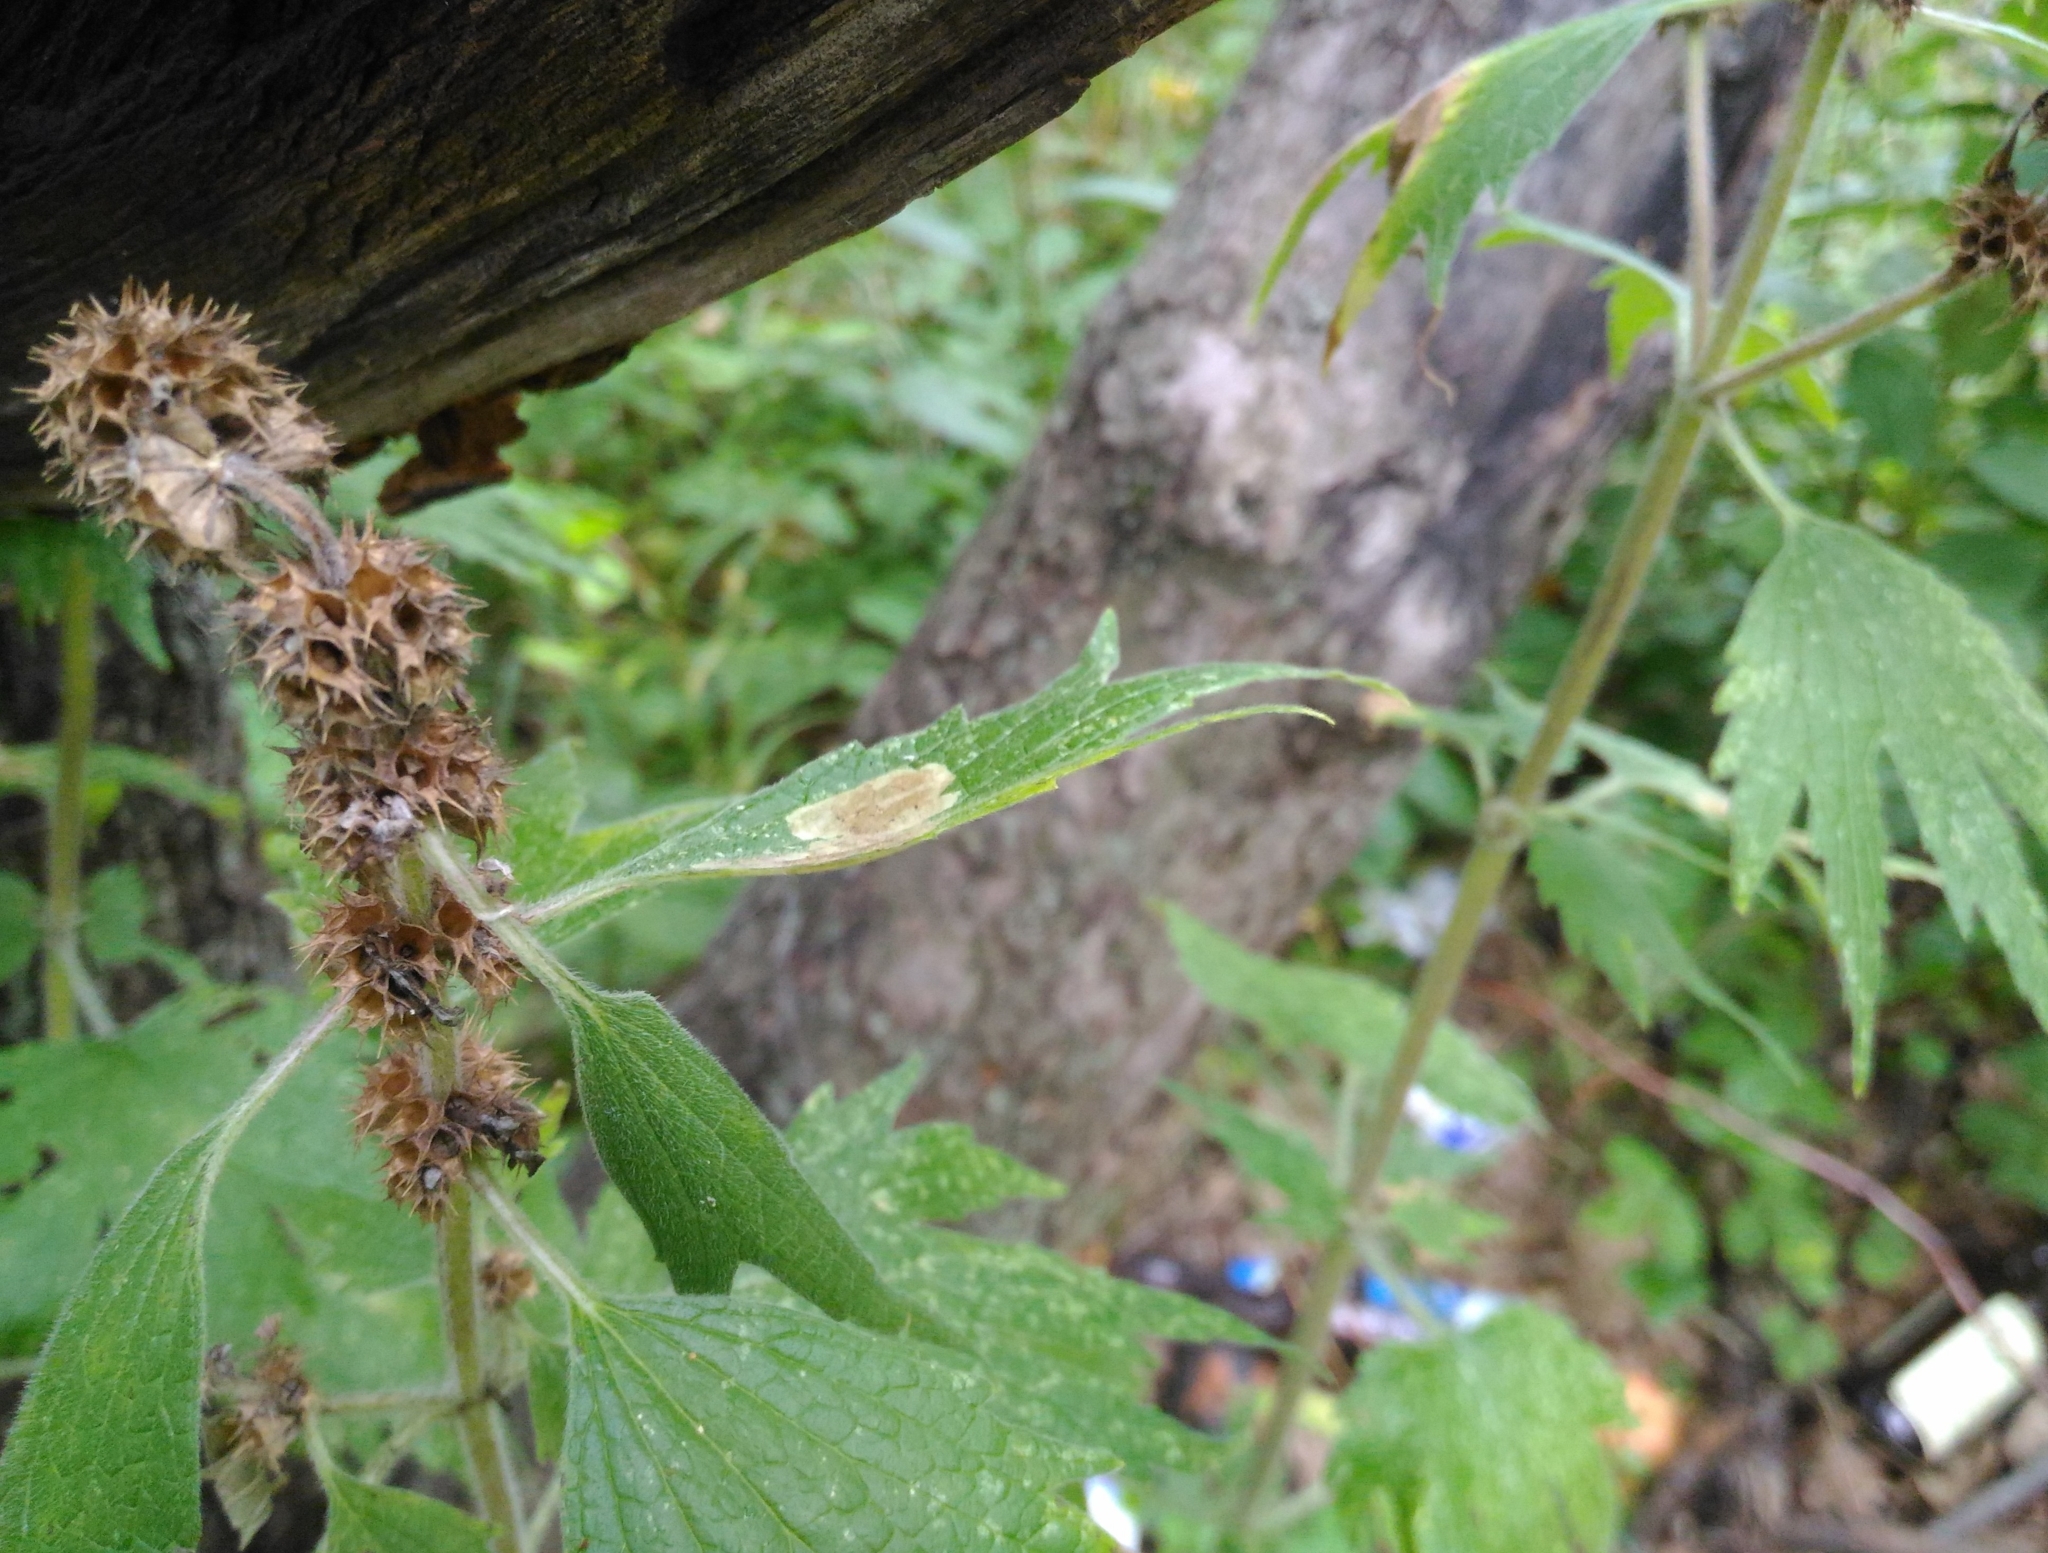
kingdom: Plantae
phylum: Tracheophyta
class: Magnoliopsida
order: Lamiales
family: Lamiaceae
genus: Leonurus
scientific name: Leonurus quinquelobatus
